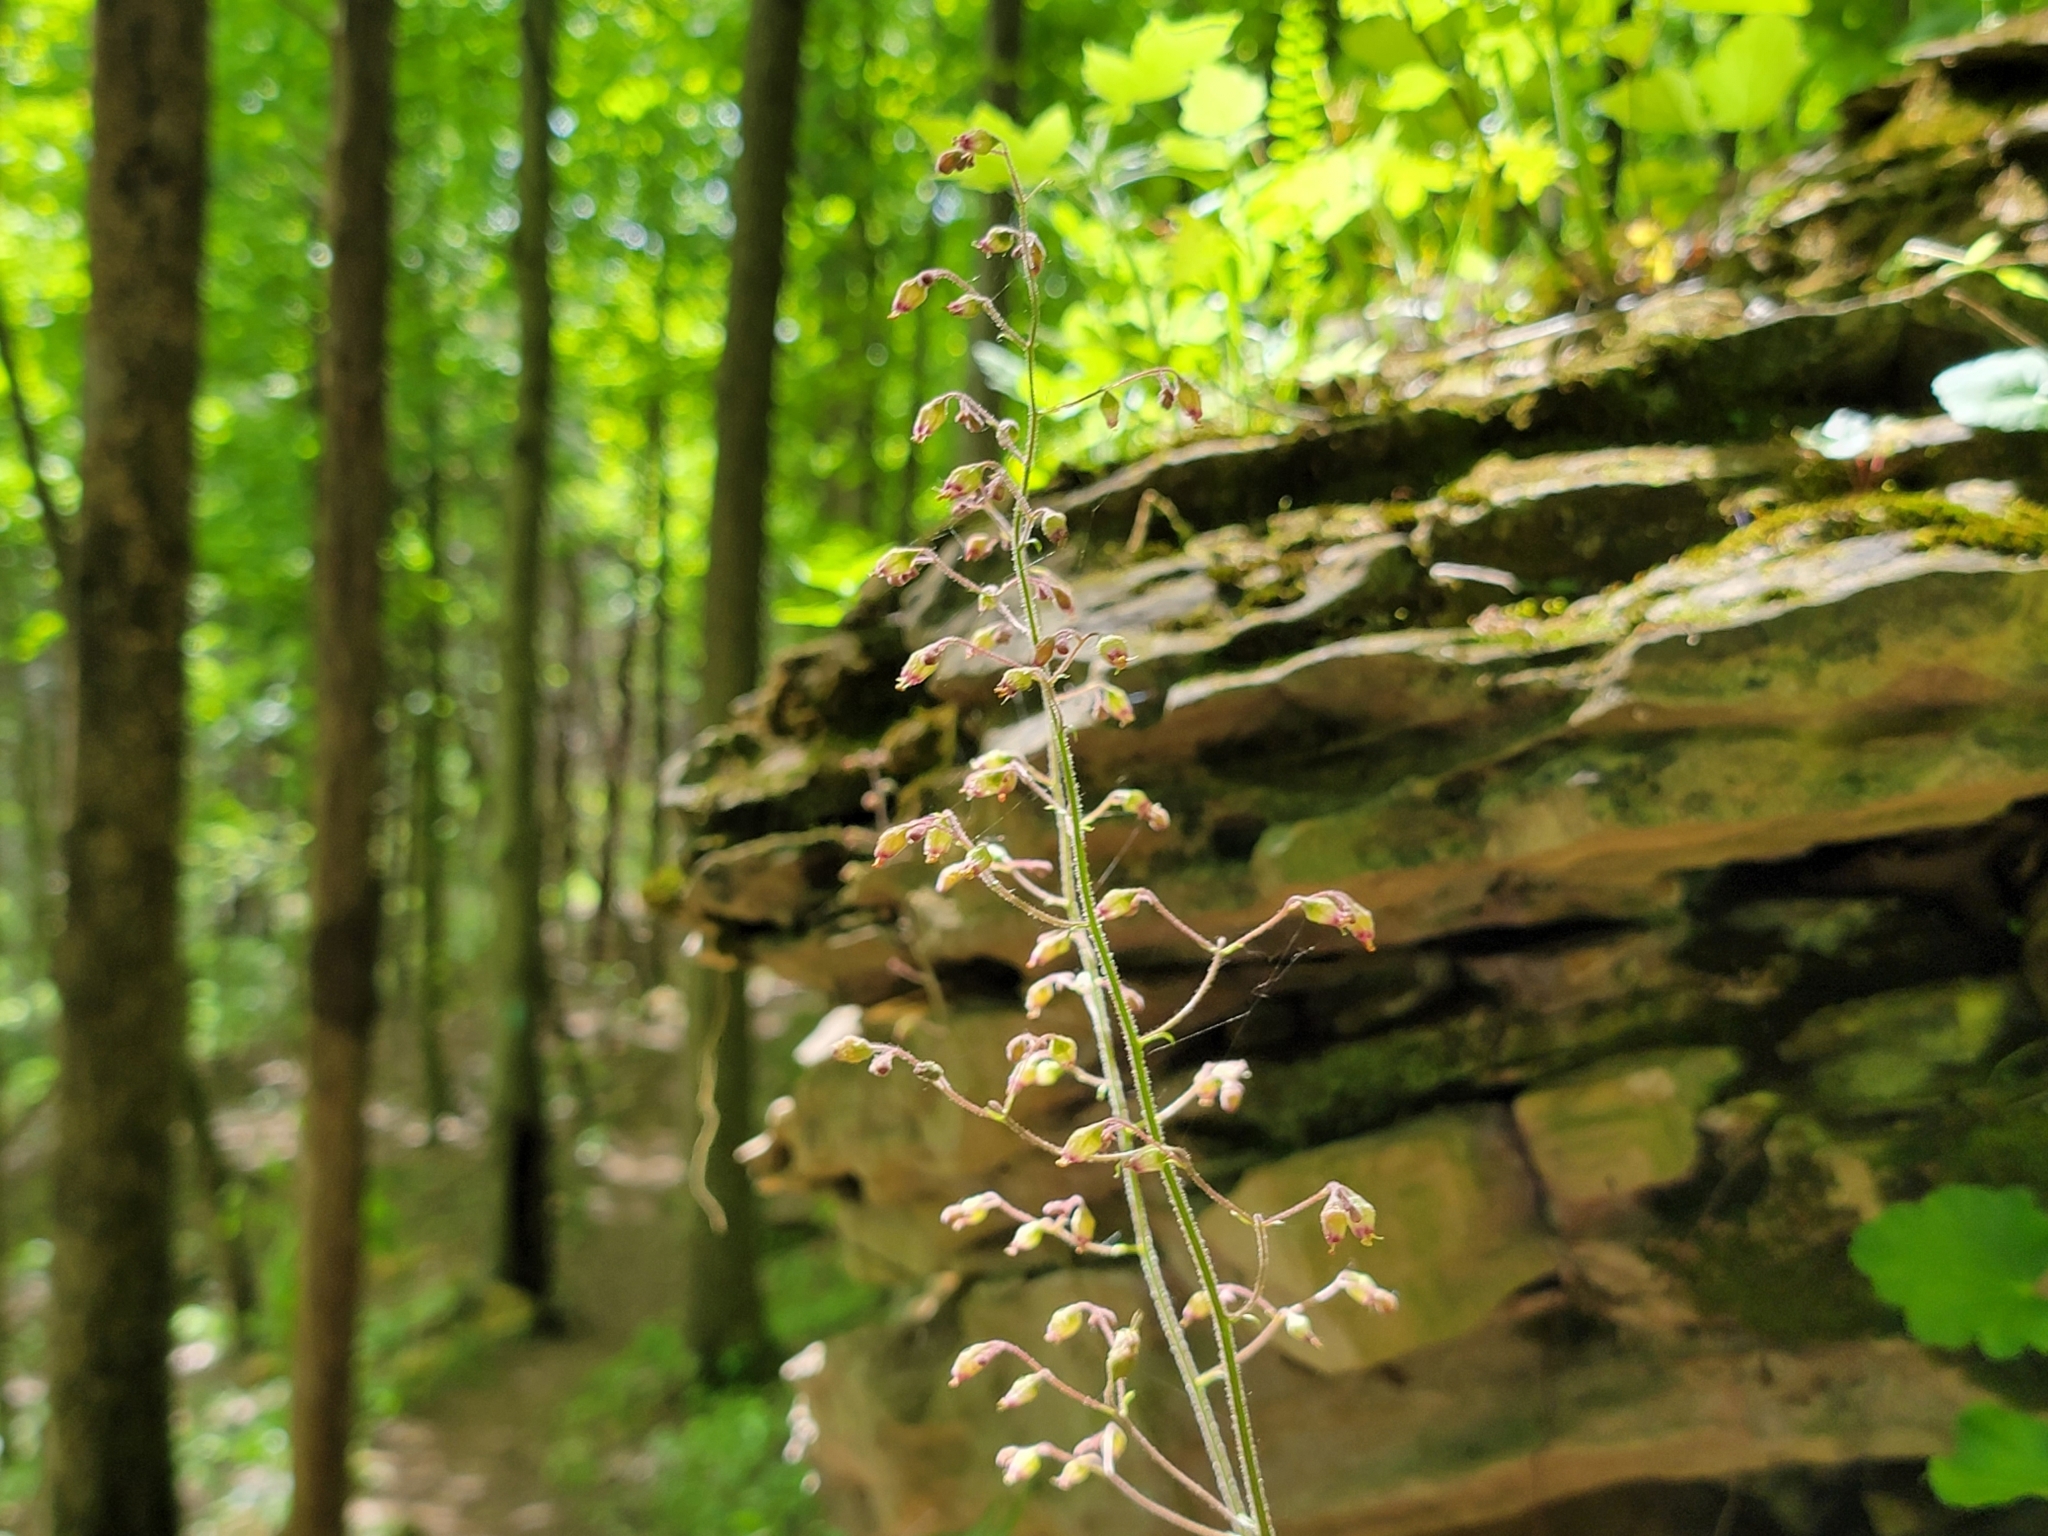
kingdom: Plantae
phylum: Tracheophyta
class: Magnoliopsida
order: Saxifragales
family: Saxifragaceae
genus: Heuchera
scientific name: Heuchera longiflora
